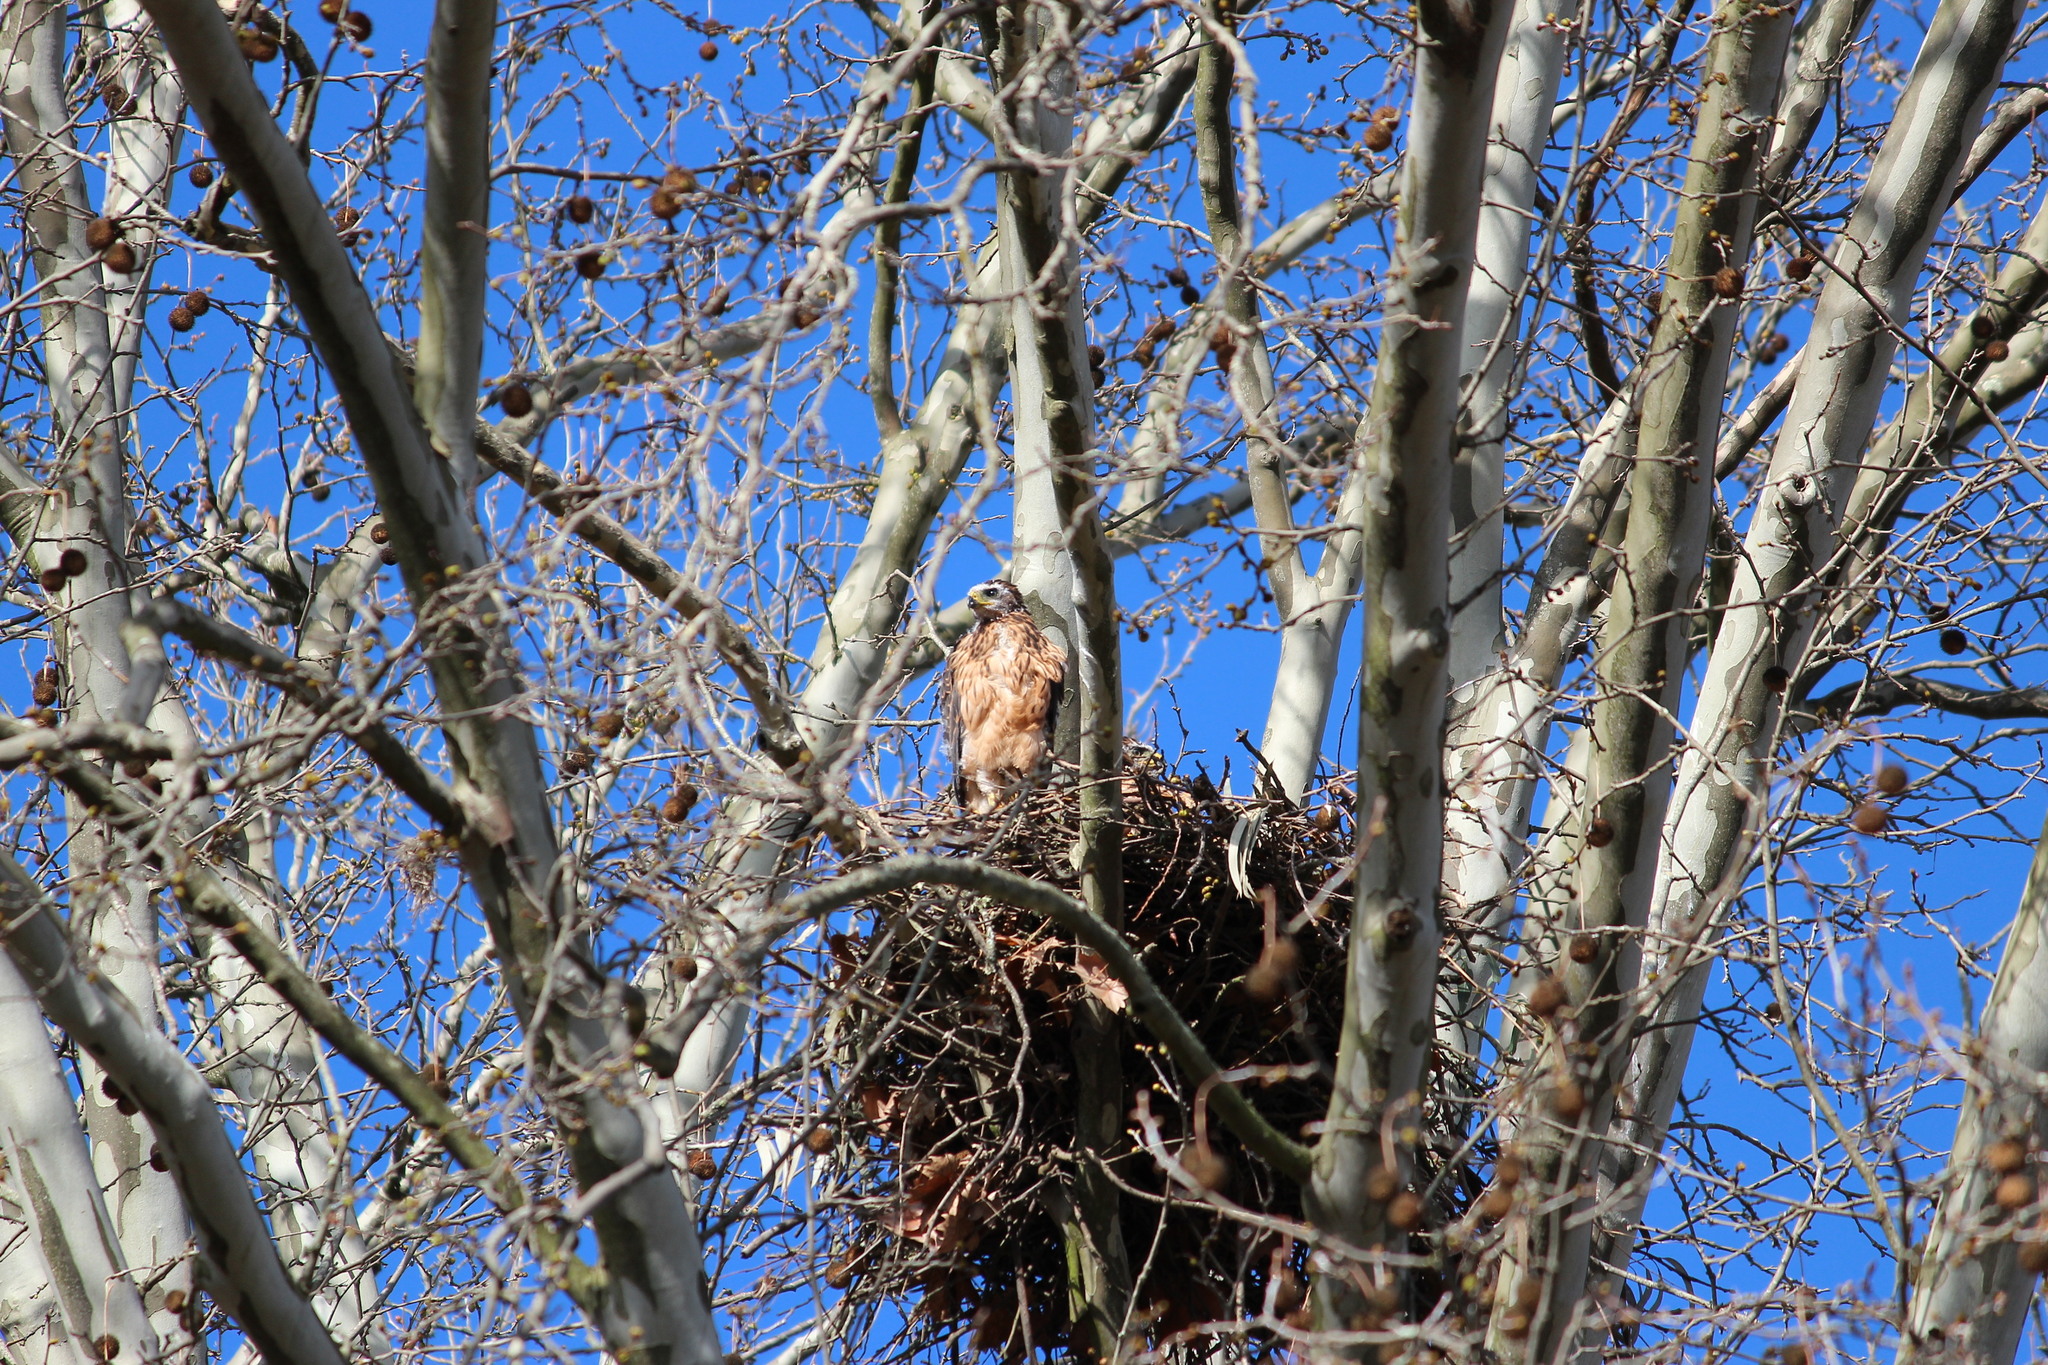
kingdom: Animalia
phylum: Chordata
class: Aves
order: Accipitriformes
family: Accipitridae
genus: Buteo
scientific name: Buteo buteo
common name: Common buzzard
